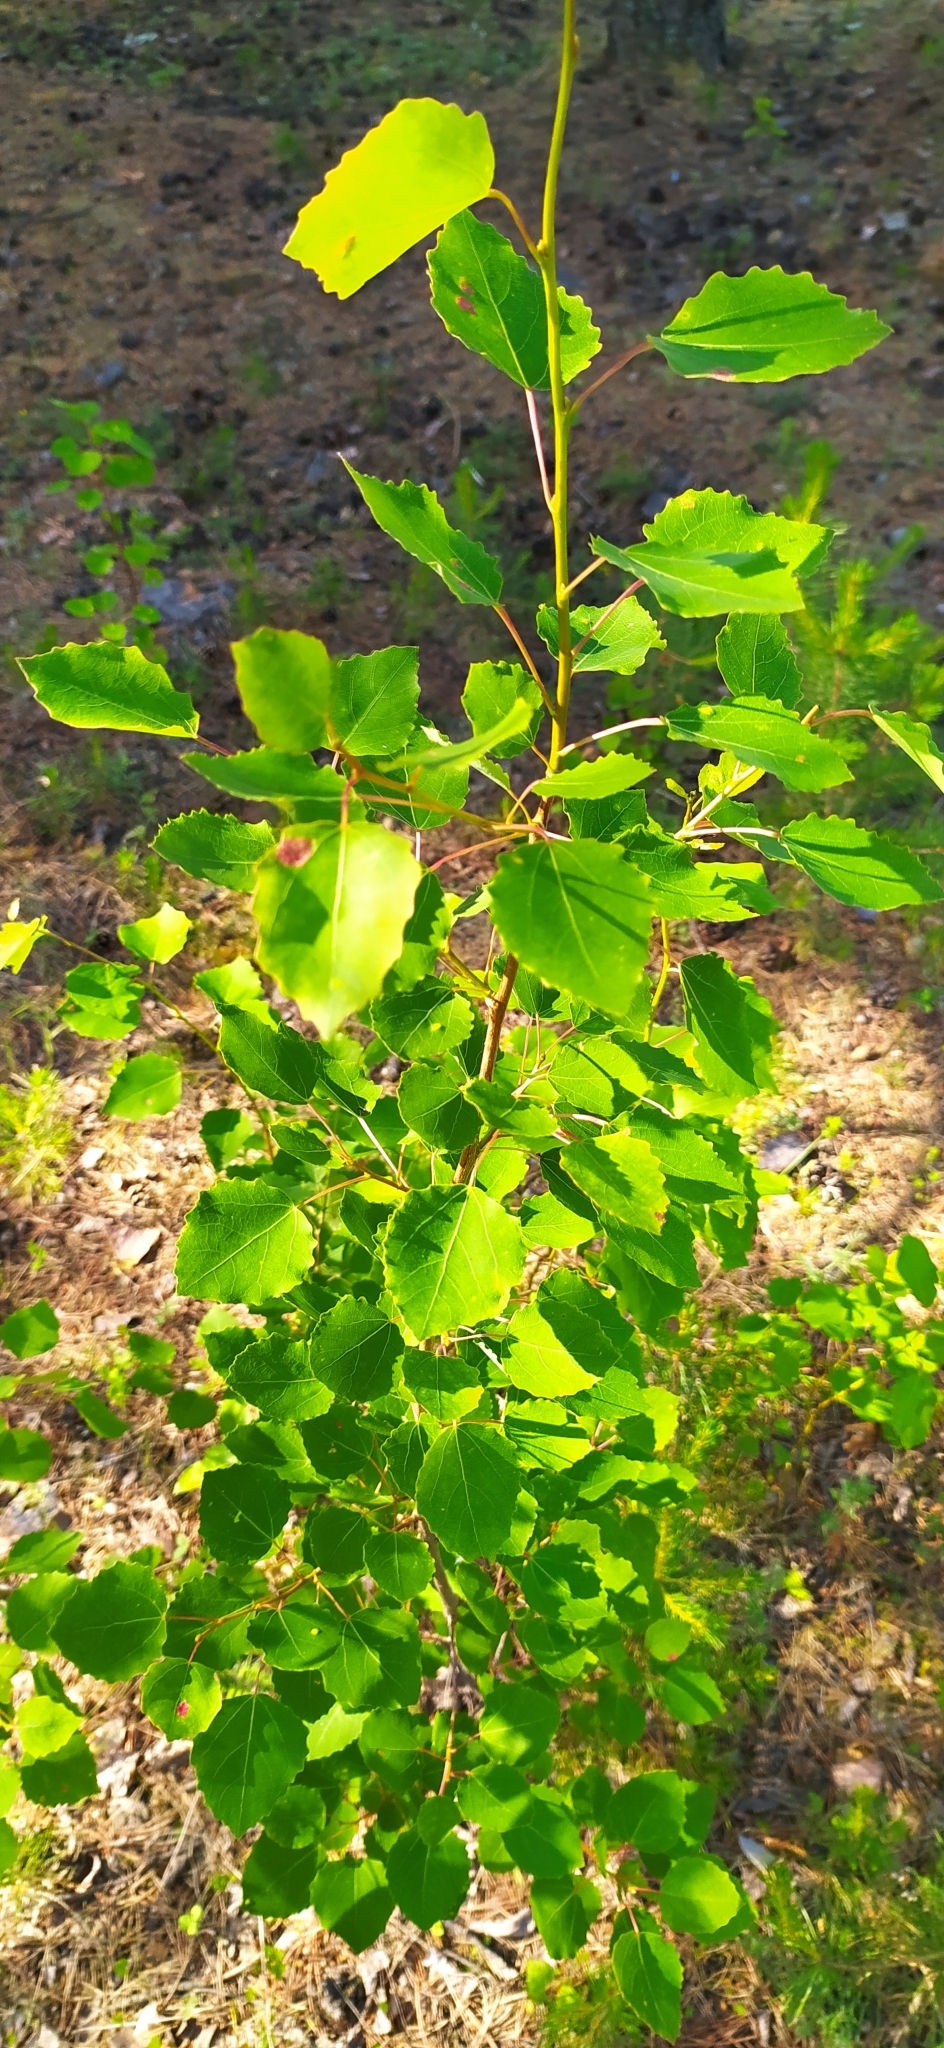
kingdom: Plantae
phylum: Tracheophyta
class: Magnoliopsida
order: Malpighiales
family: Salicaceae
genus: Populus
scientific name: Populus tremula
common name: European aspen
